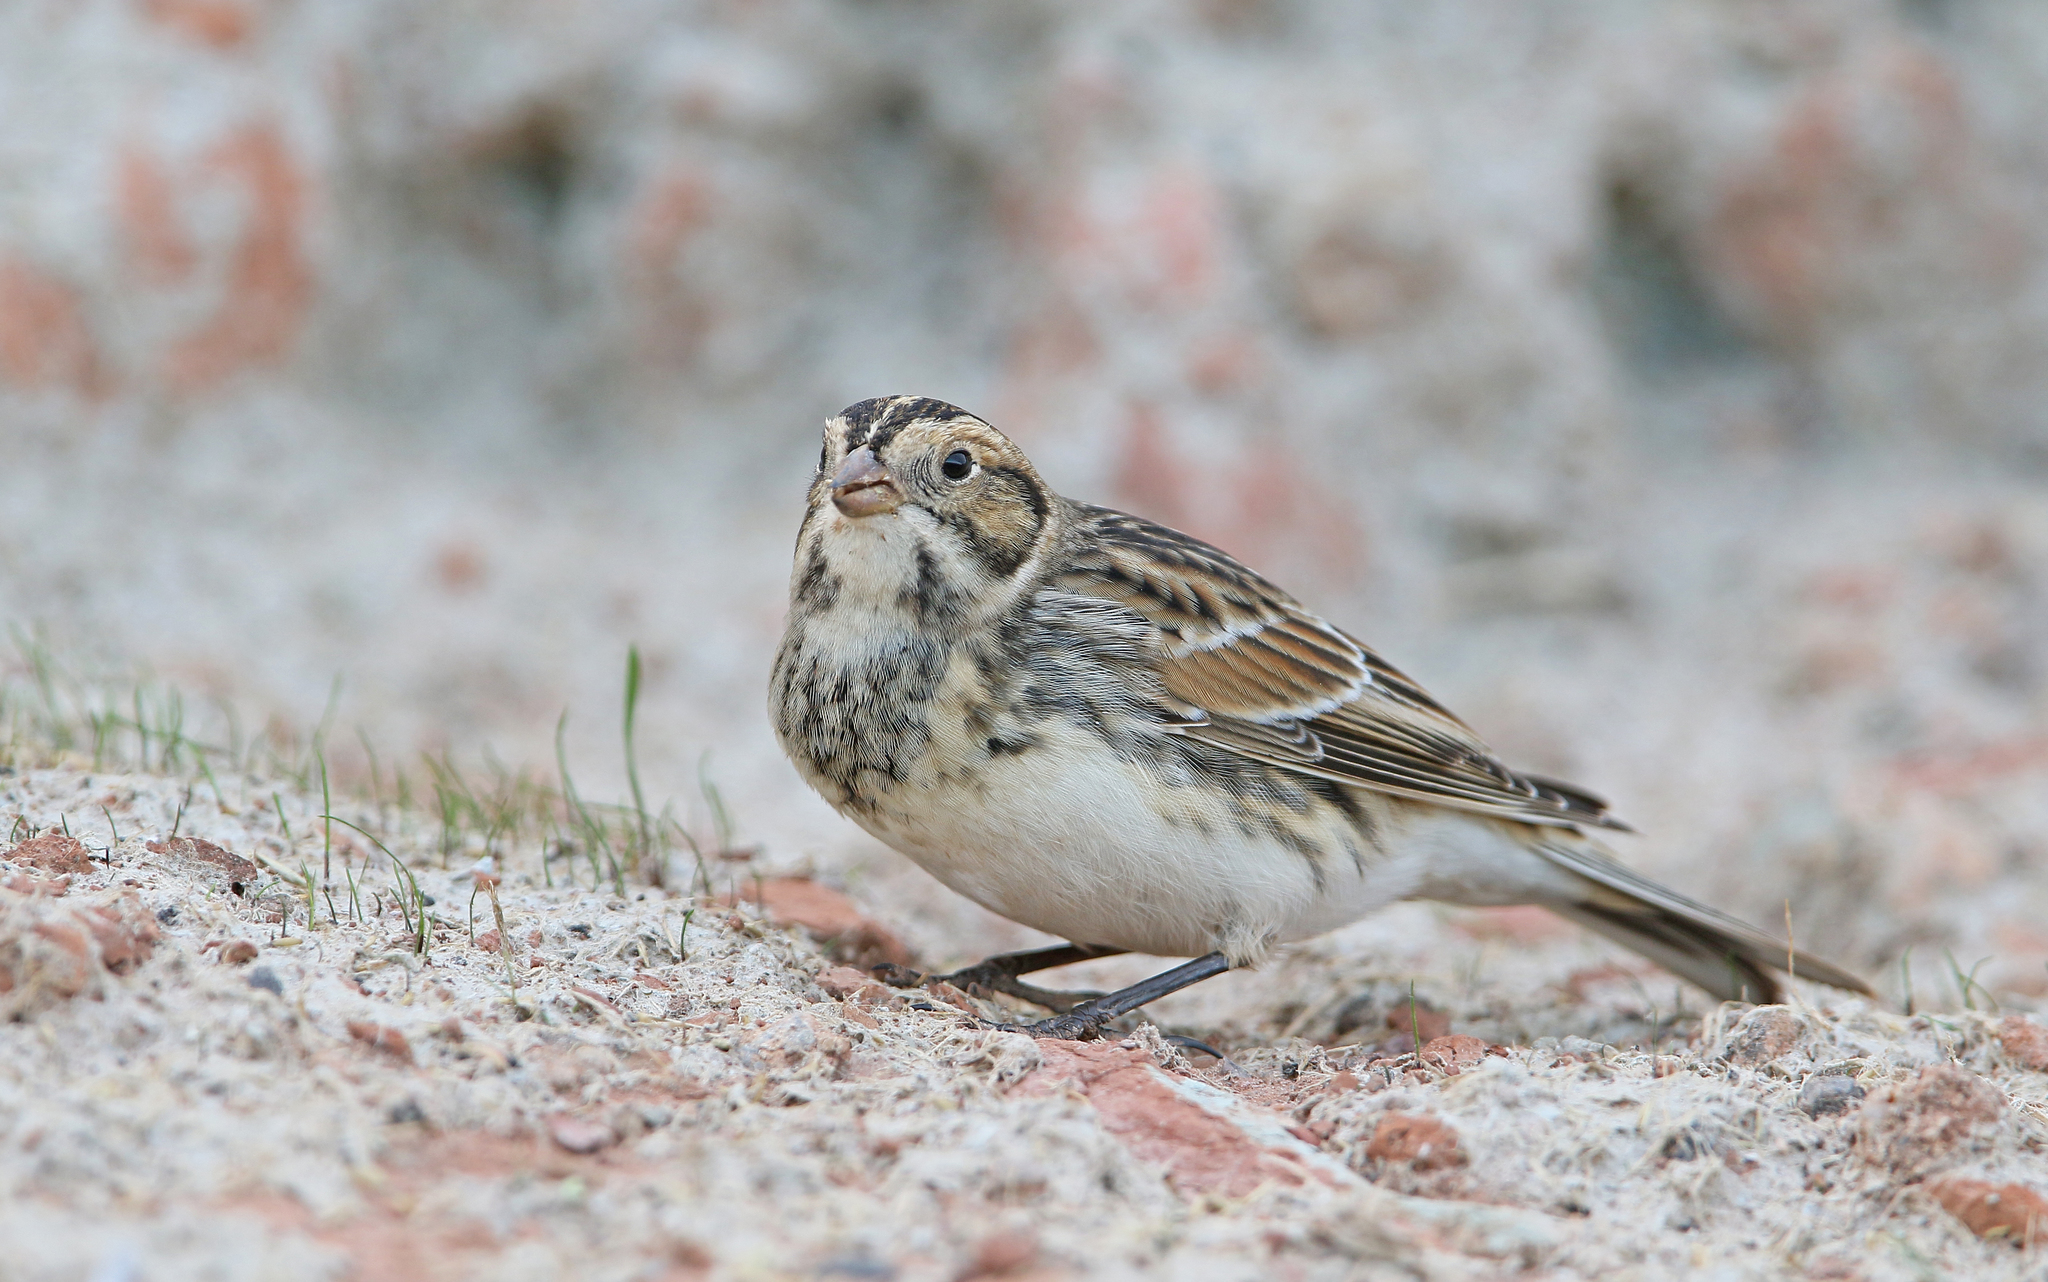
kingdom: Animalia
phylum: Chordata
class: Aves
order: Passeriformes
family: Calcariidae
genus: Calcarius
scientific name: Calcarius lapponicus
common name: Lapland longspur
